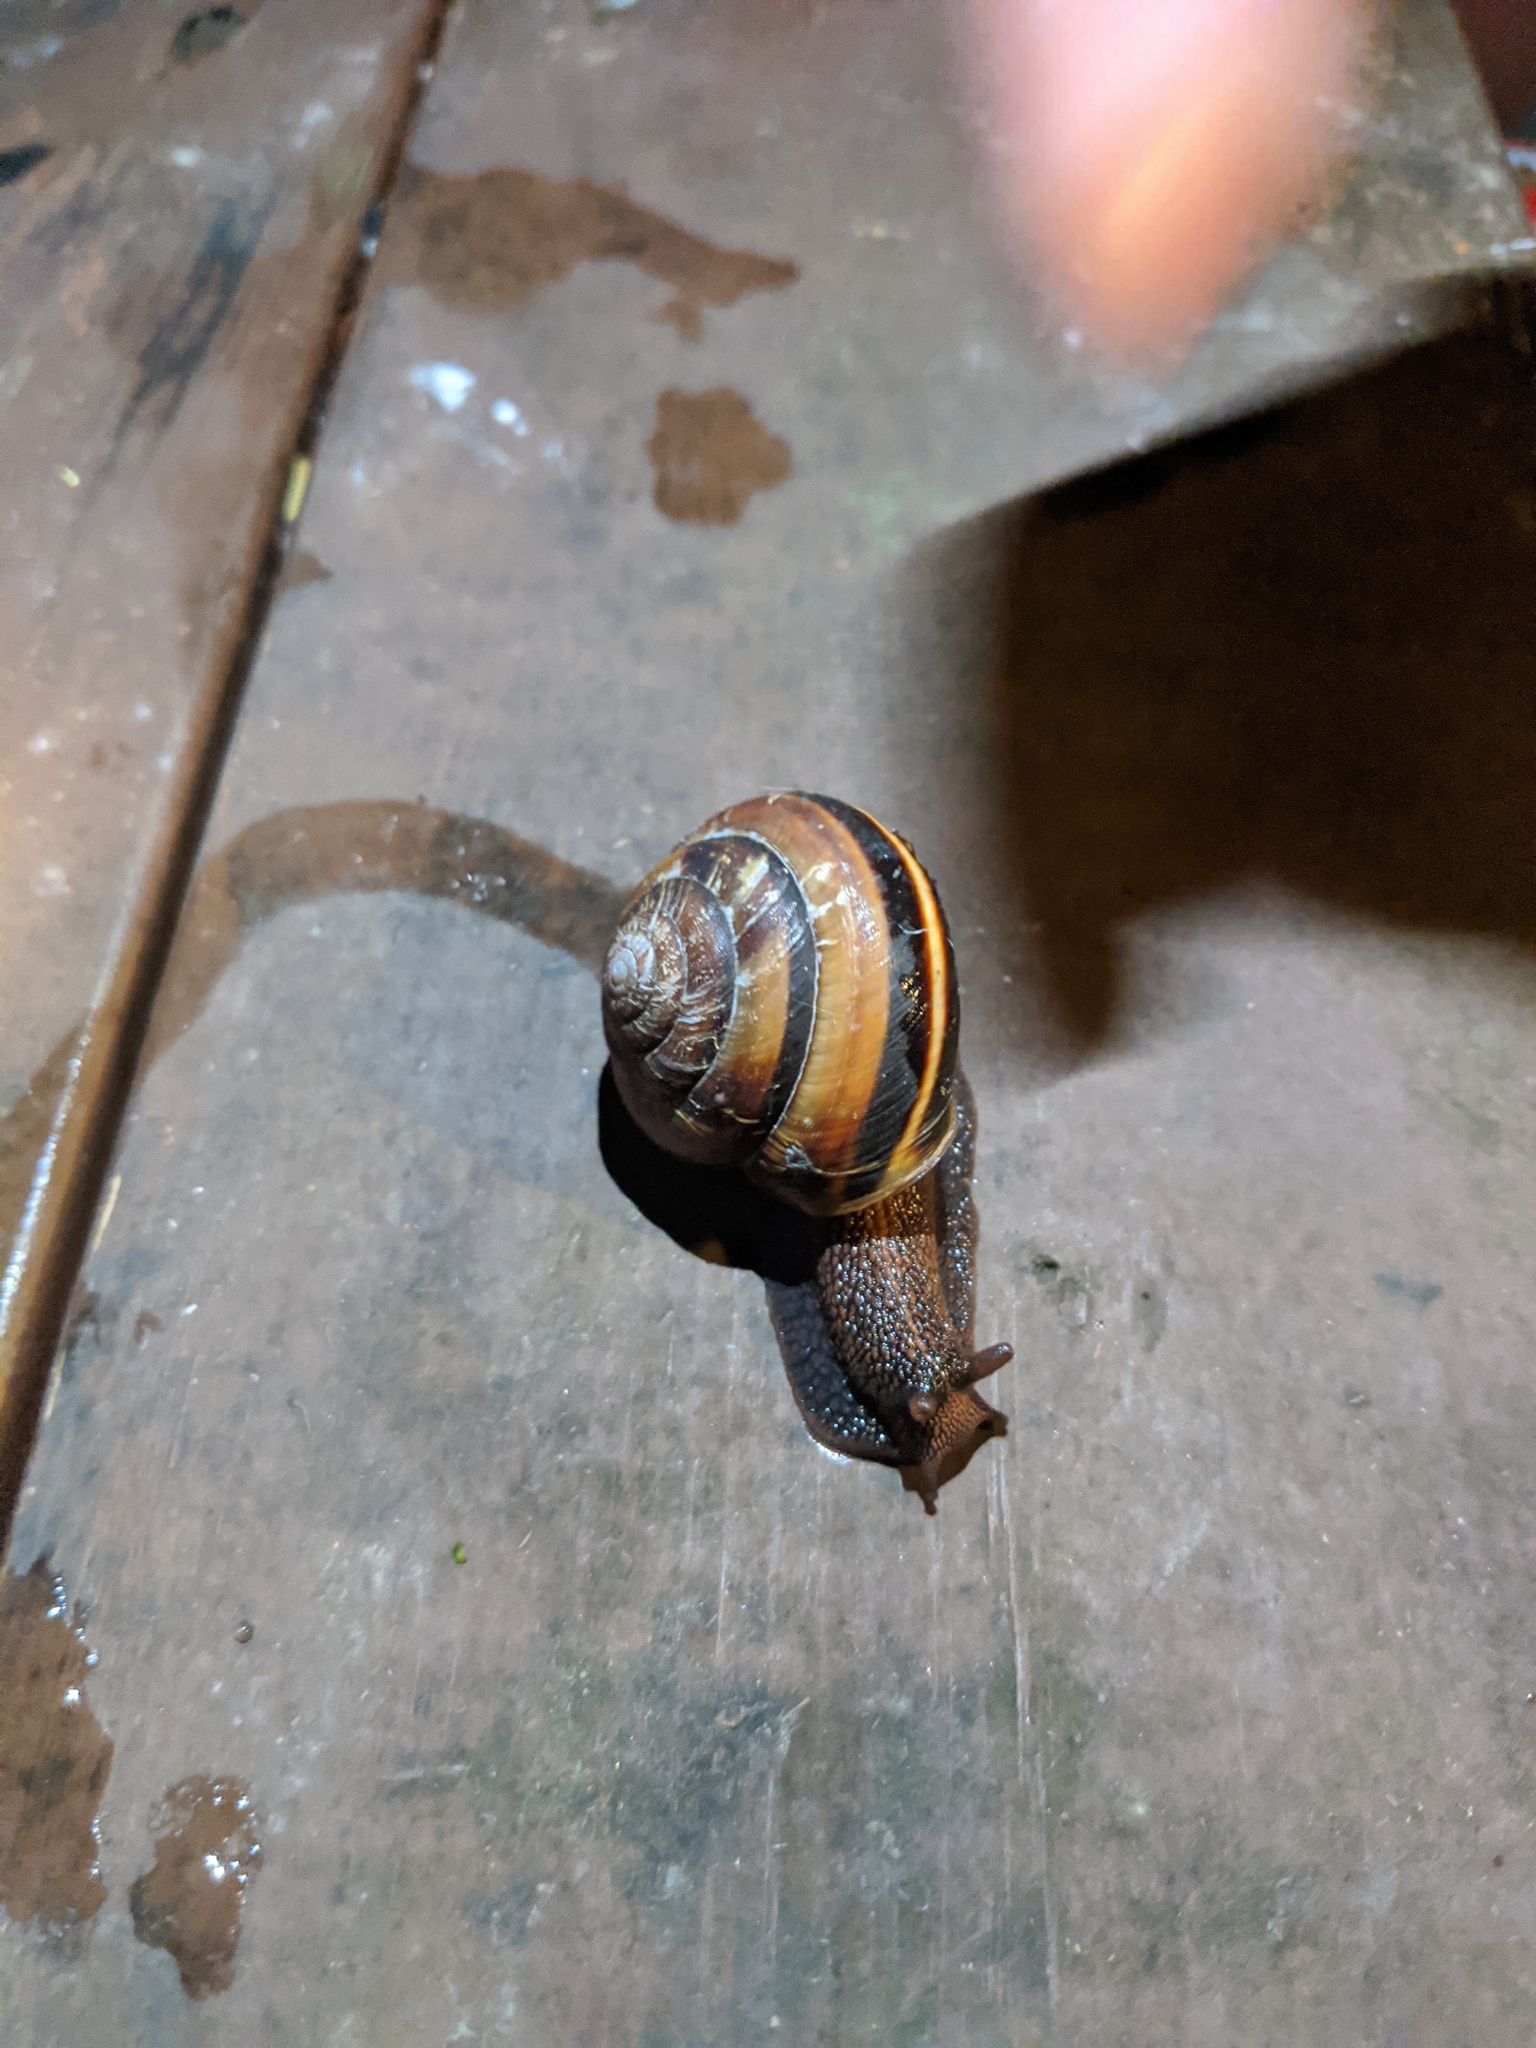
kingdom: Animalia
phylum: Mollusca
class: Gastropoda
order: Stylommatophora
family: Xanthonychidae
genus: Monadenia
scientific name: Monadenia fidelis
